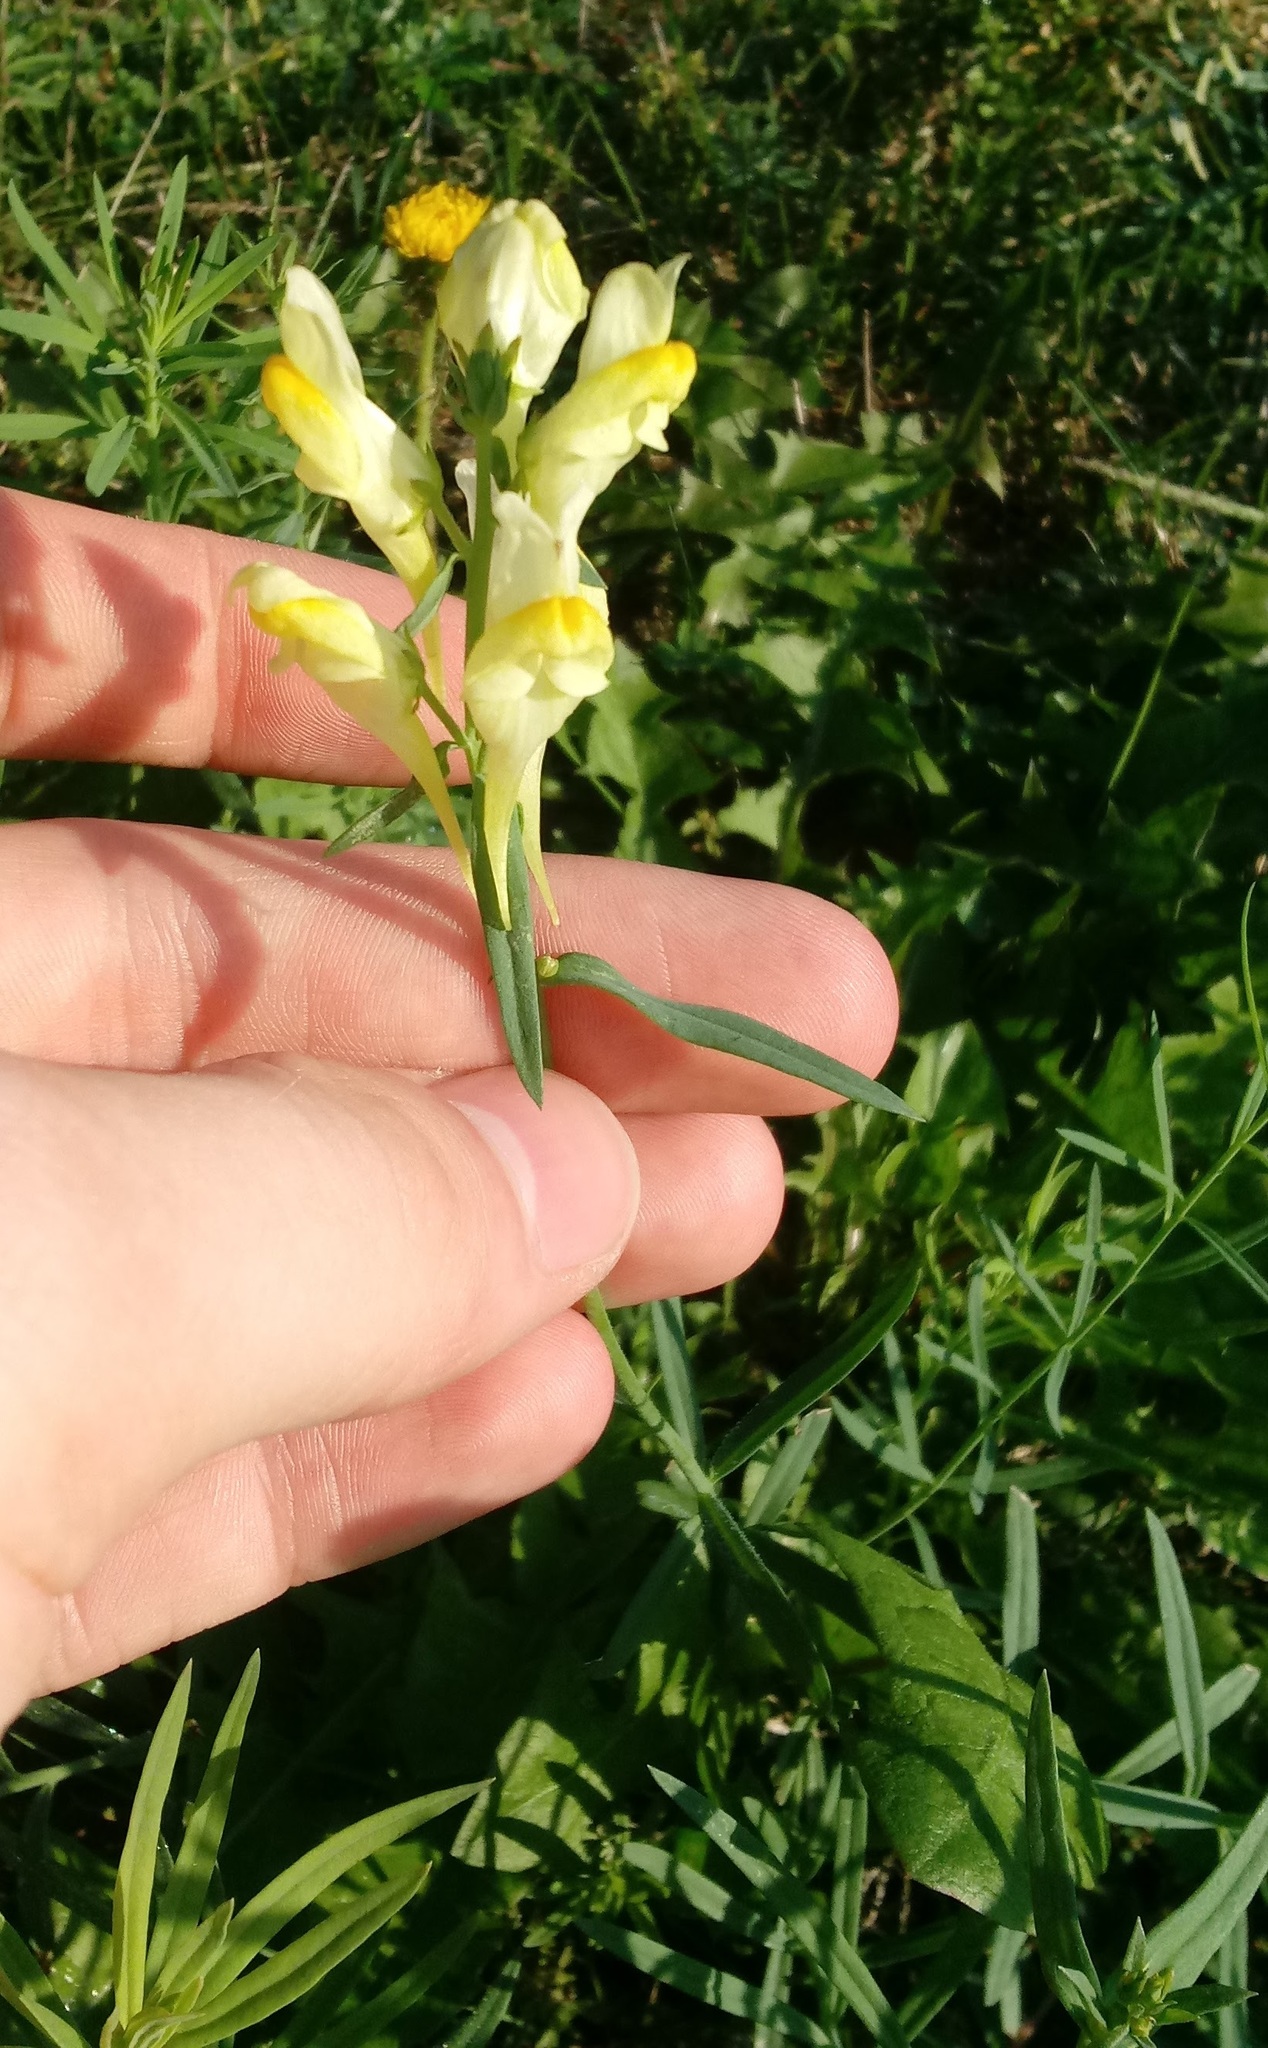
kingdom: Plantae
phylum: Tracheophyta
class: Magnoliopsida
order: Lamiales
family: Plantaginaceae
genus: Linaria
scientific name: Linaria vulgaris
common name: Butter and eggs
